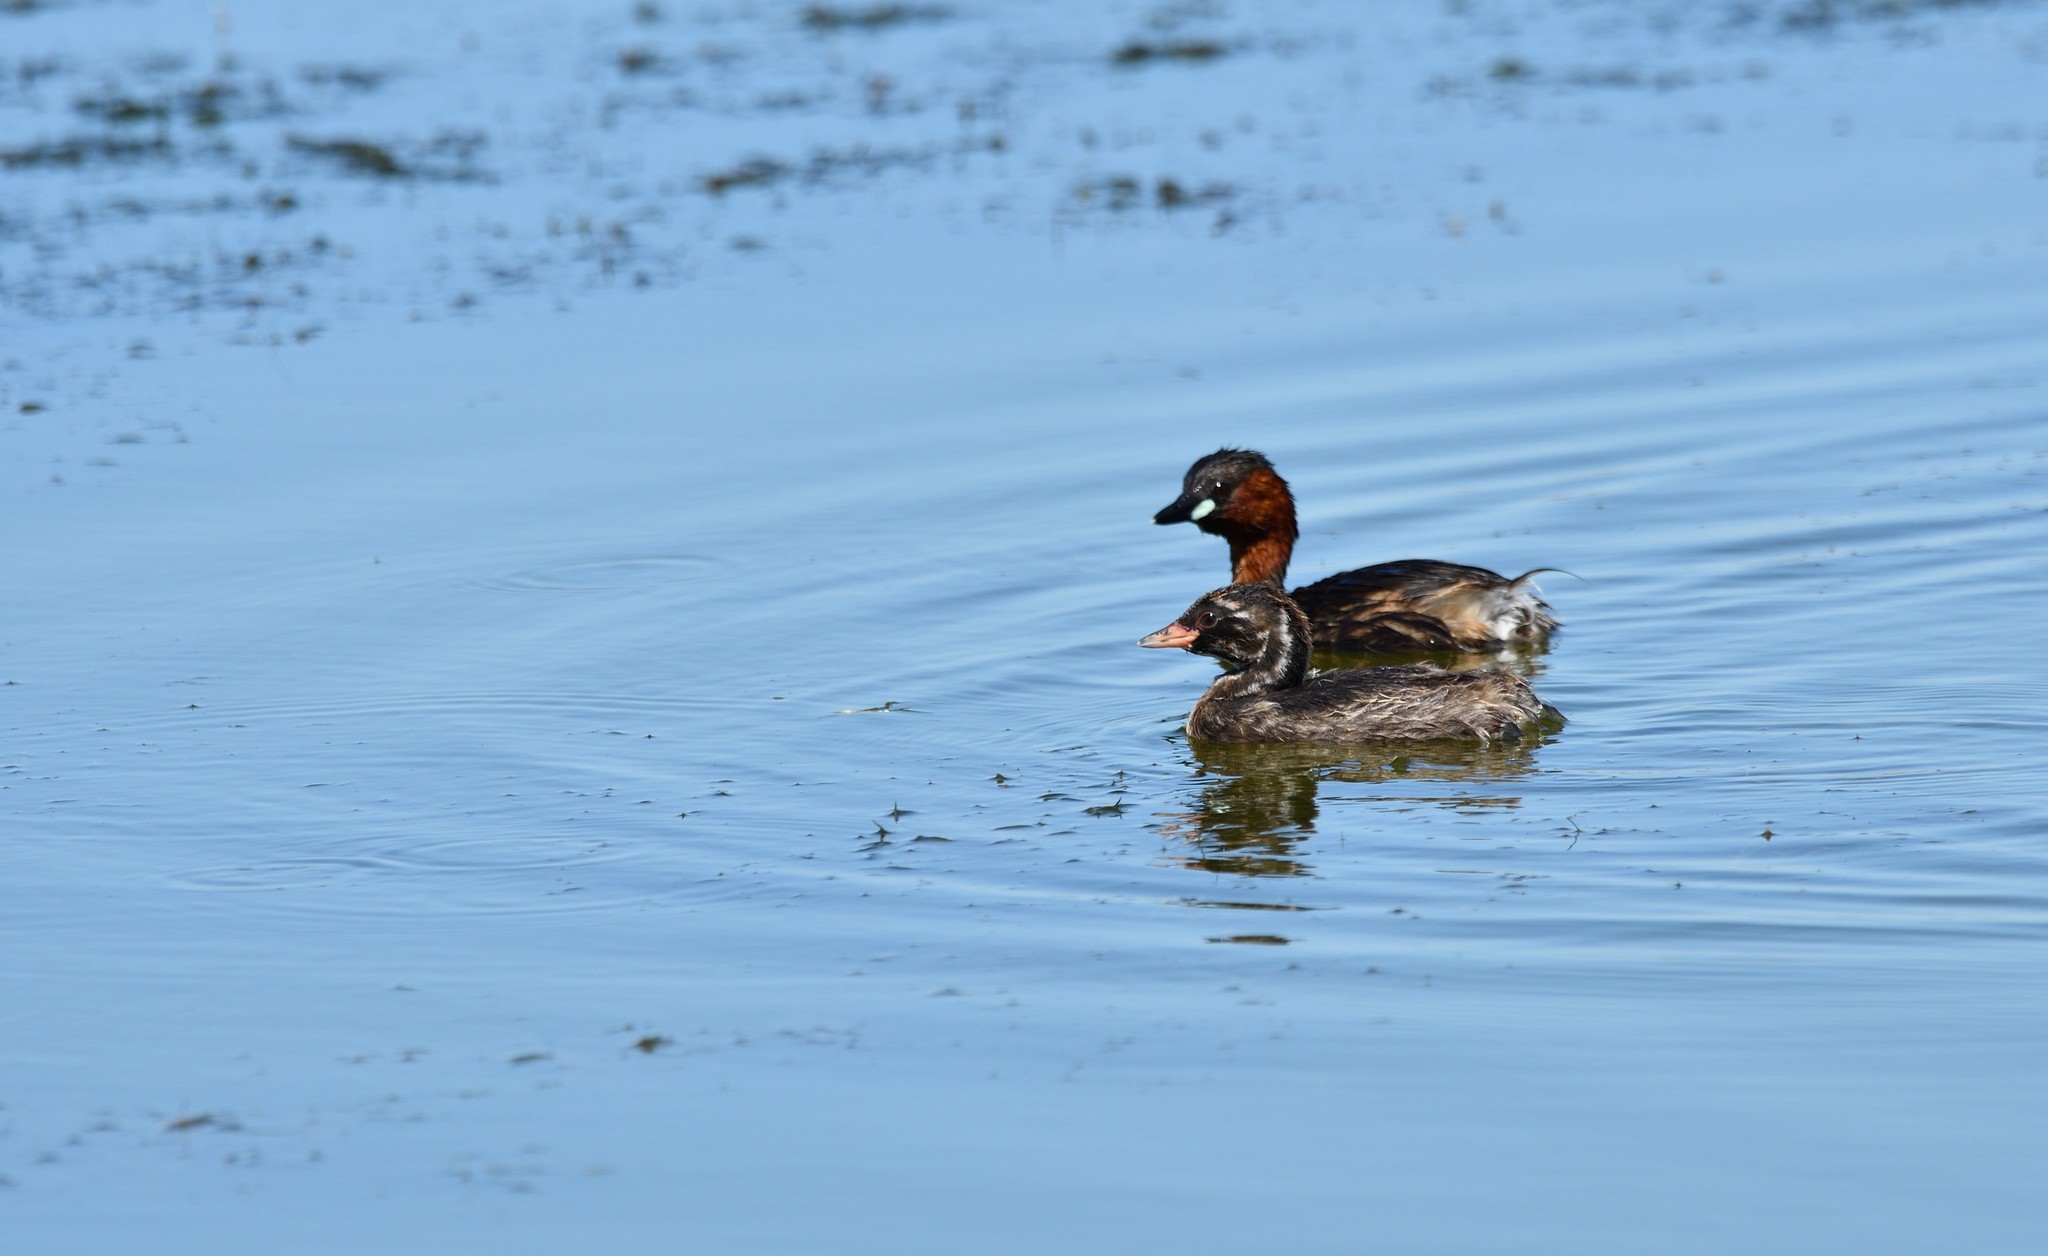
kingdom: Animalia
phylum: Chordata
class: Aves
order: Podicipediformes
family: Podicipedidae
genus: Tachybaptus
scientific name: Tachybaptus ruficollis
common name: Little grebe
